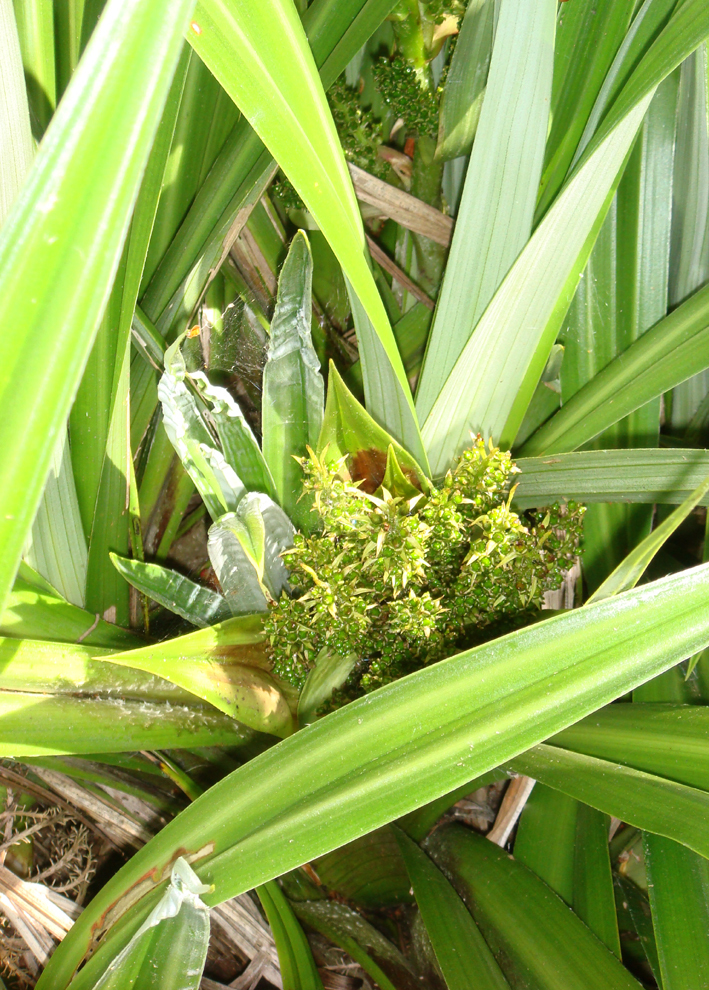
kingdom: Plantae
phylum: Tracheophyta
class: Liliopsida
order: Asparagales
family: Asteliaceae
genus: Astelia
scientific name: Astelia grandis
